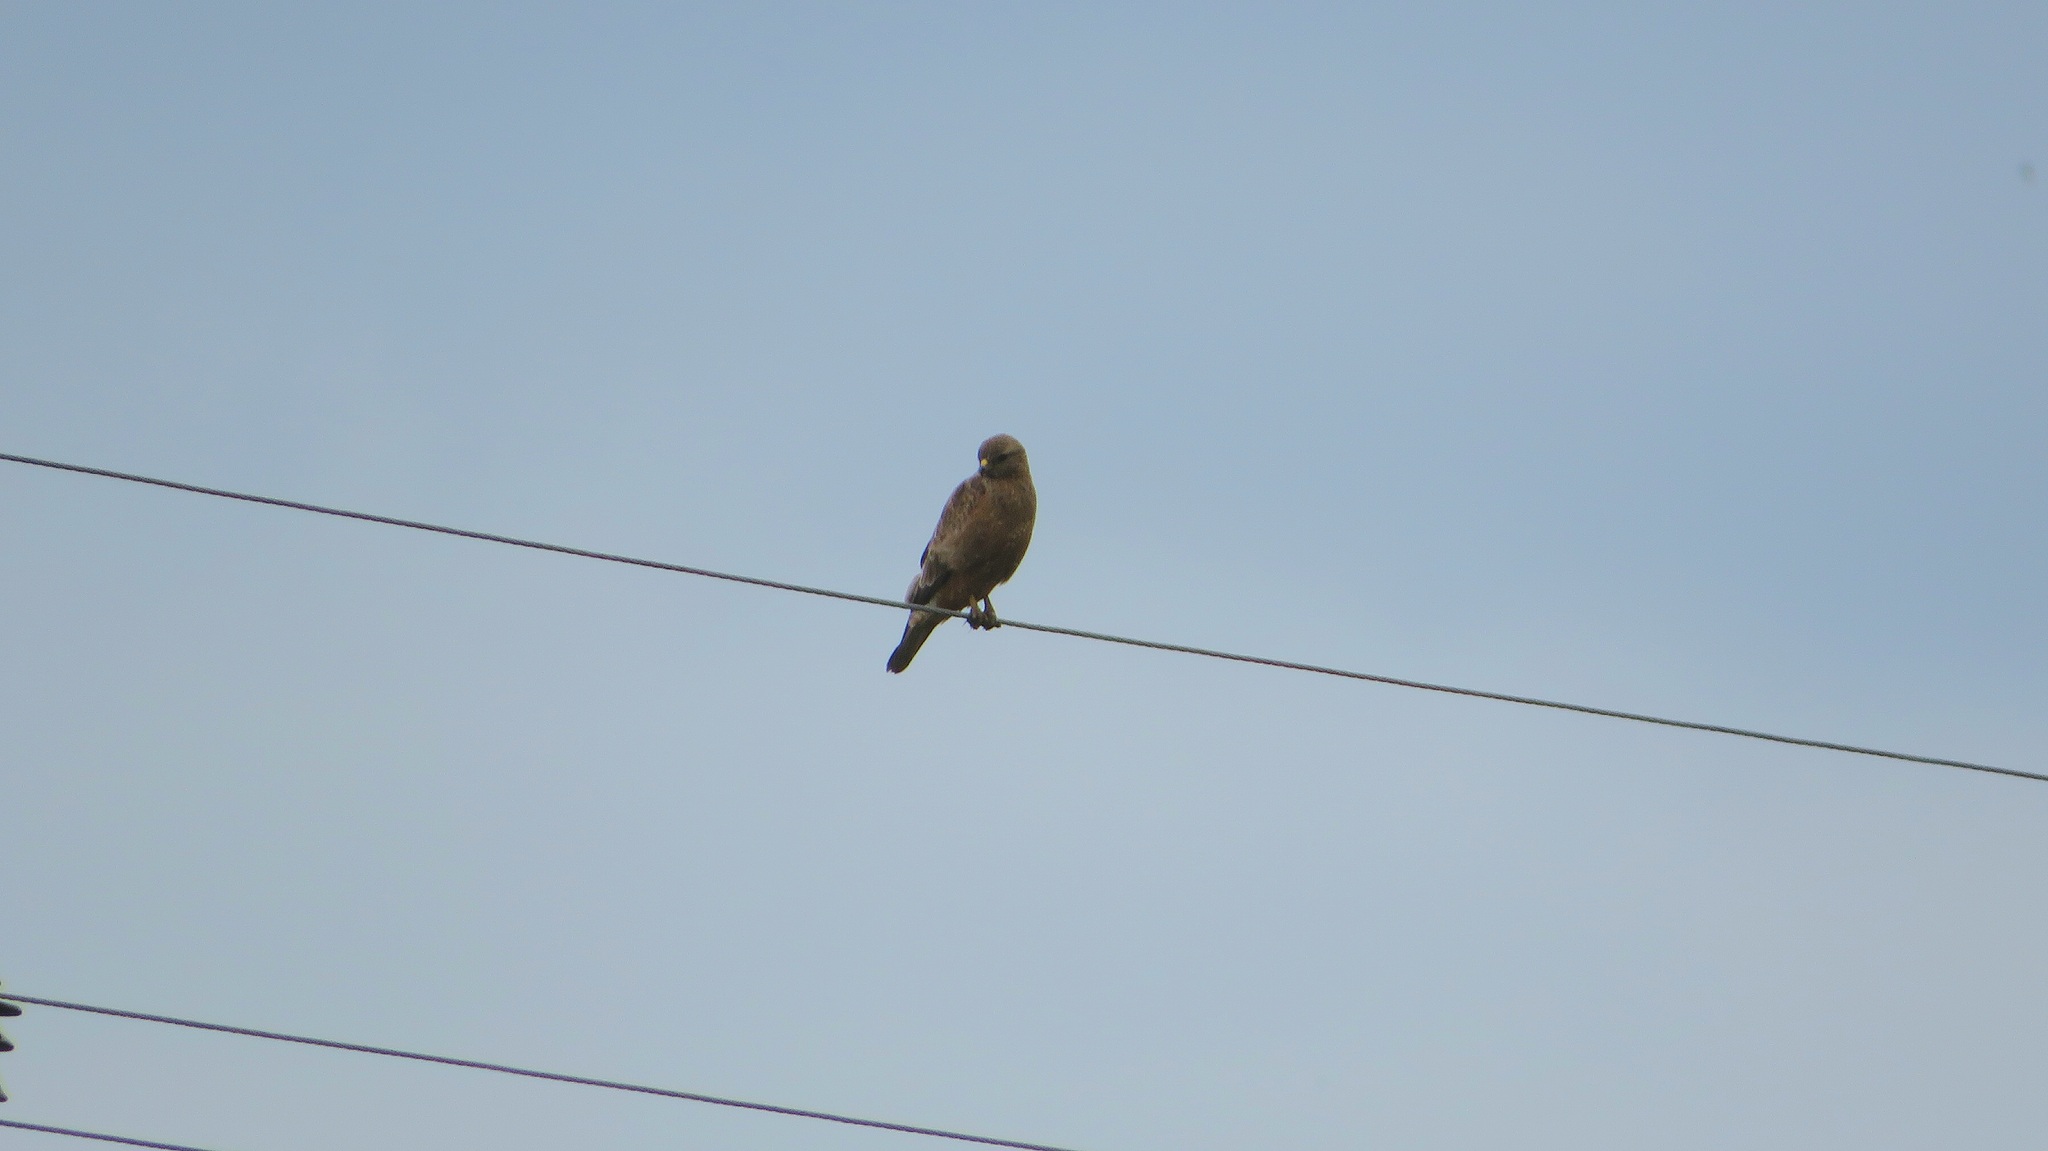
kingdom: Animalia
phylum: Chordata
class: Aves
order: Accipitriformes
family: Accipitridae
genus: Buteo
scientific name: Buteo buteo
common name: Common buzzard
